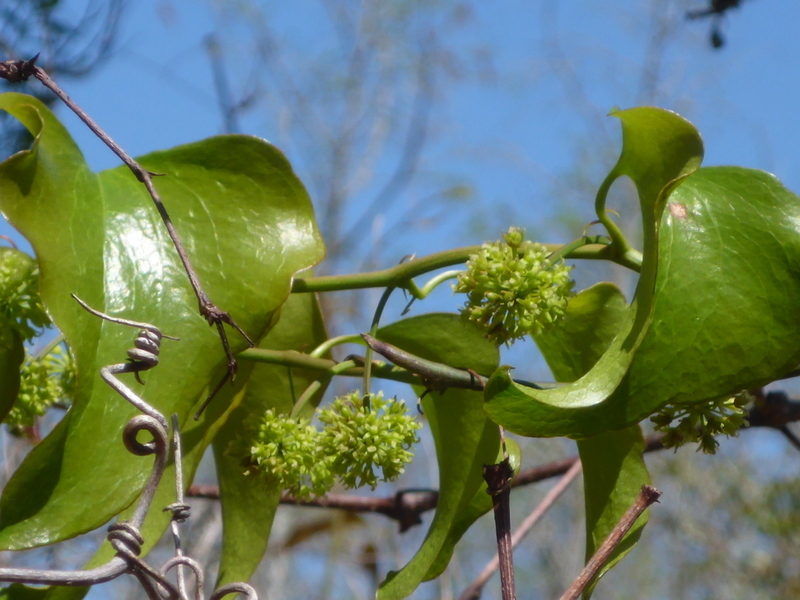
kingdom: Plantae
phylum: Tracheophyta
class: Liliopsida
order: Liliales
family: Smilacaceae
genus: Smilax
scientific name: Smilax bona-nox
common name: Catbrier
